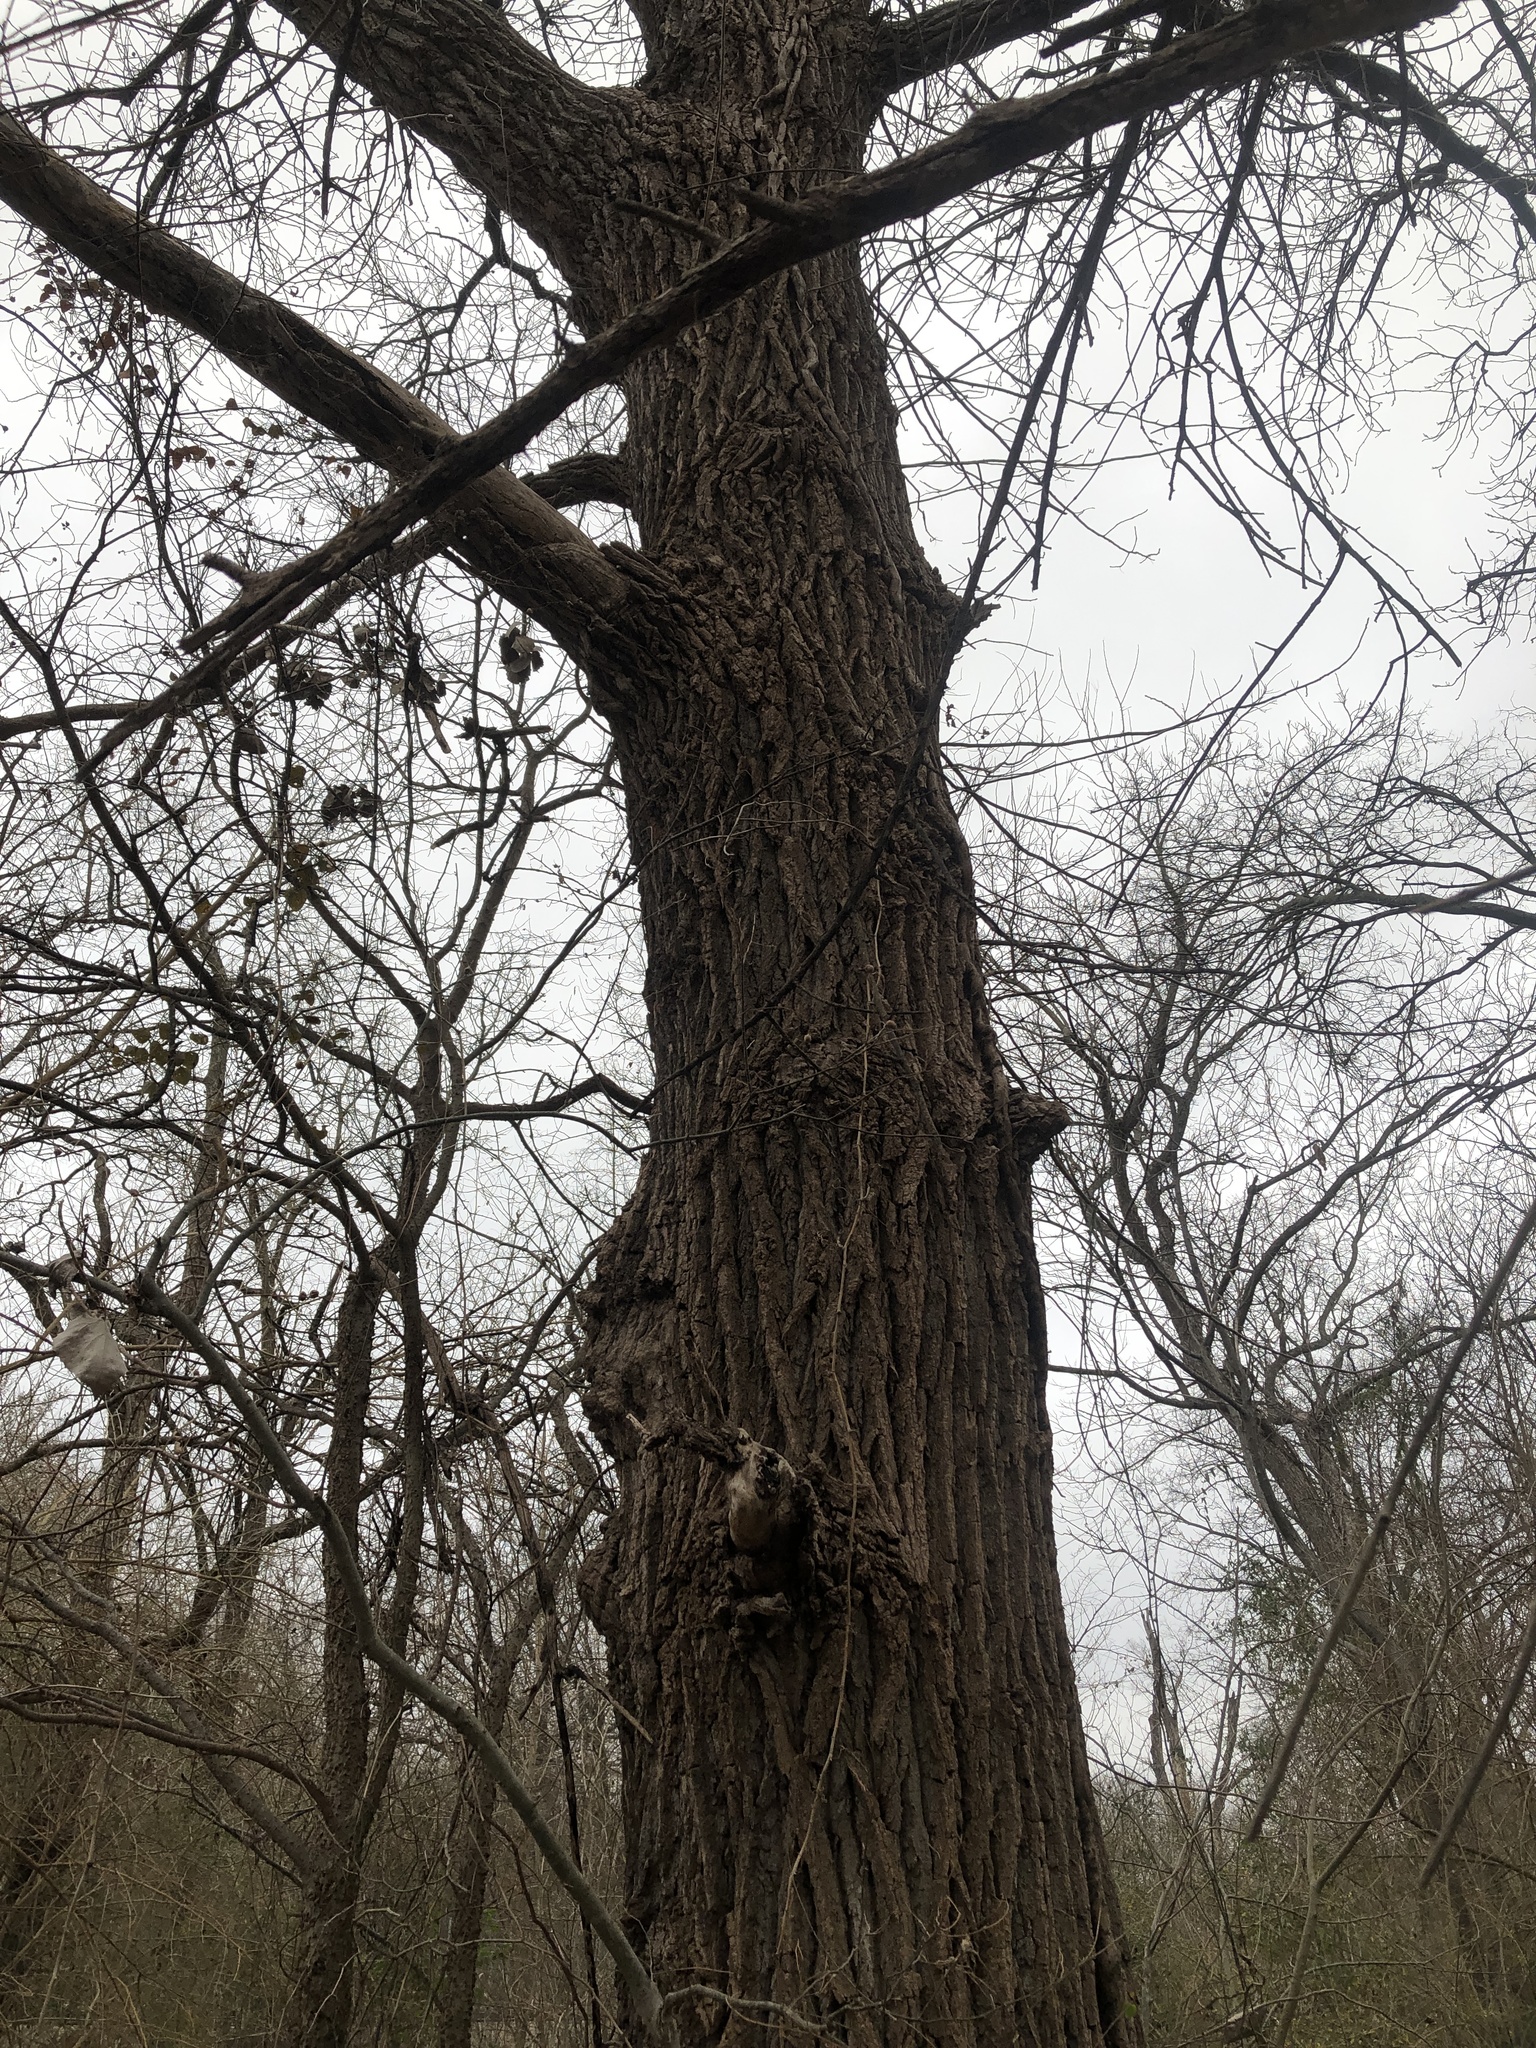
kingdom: Plantae
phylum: Tracheophyta
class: Magnoliopsida
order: Malpighiales
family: Salicaceae
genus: Populus
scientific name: Populus deltoides
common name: Eastern cottonwood
